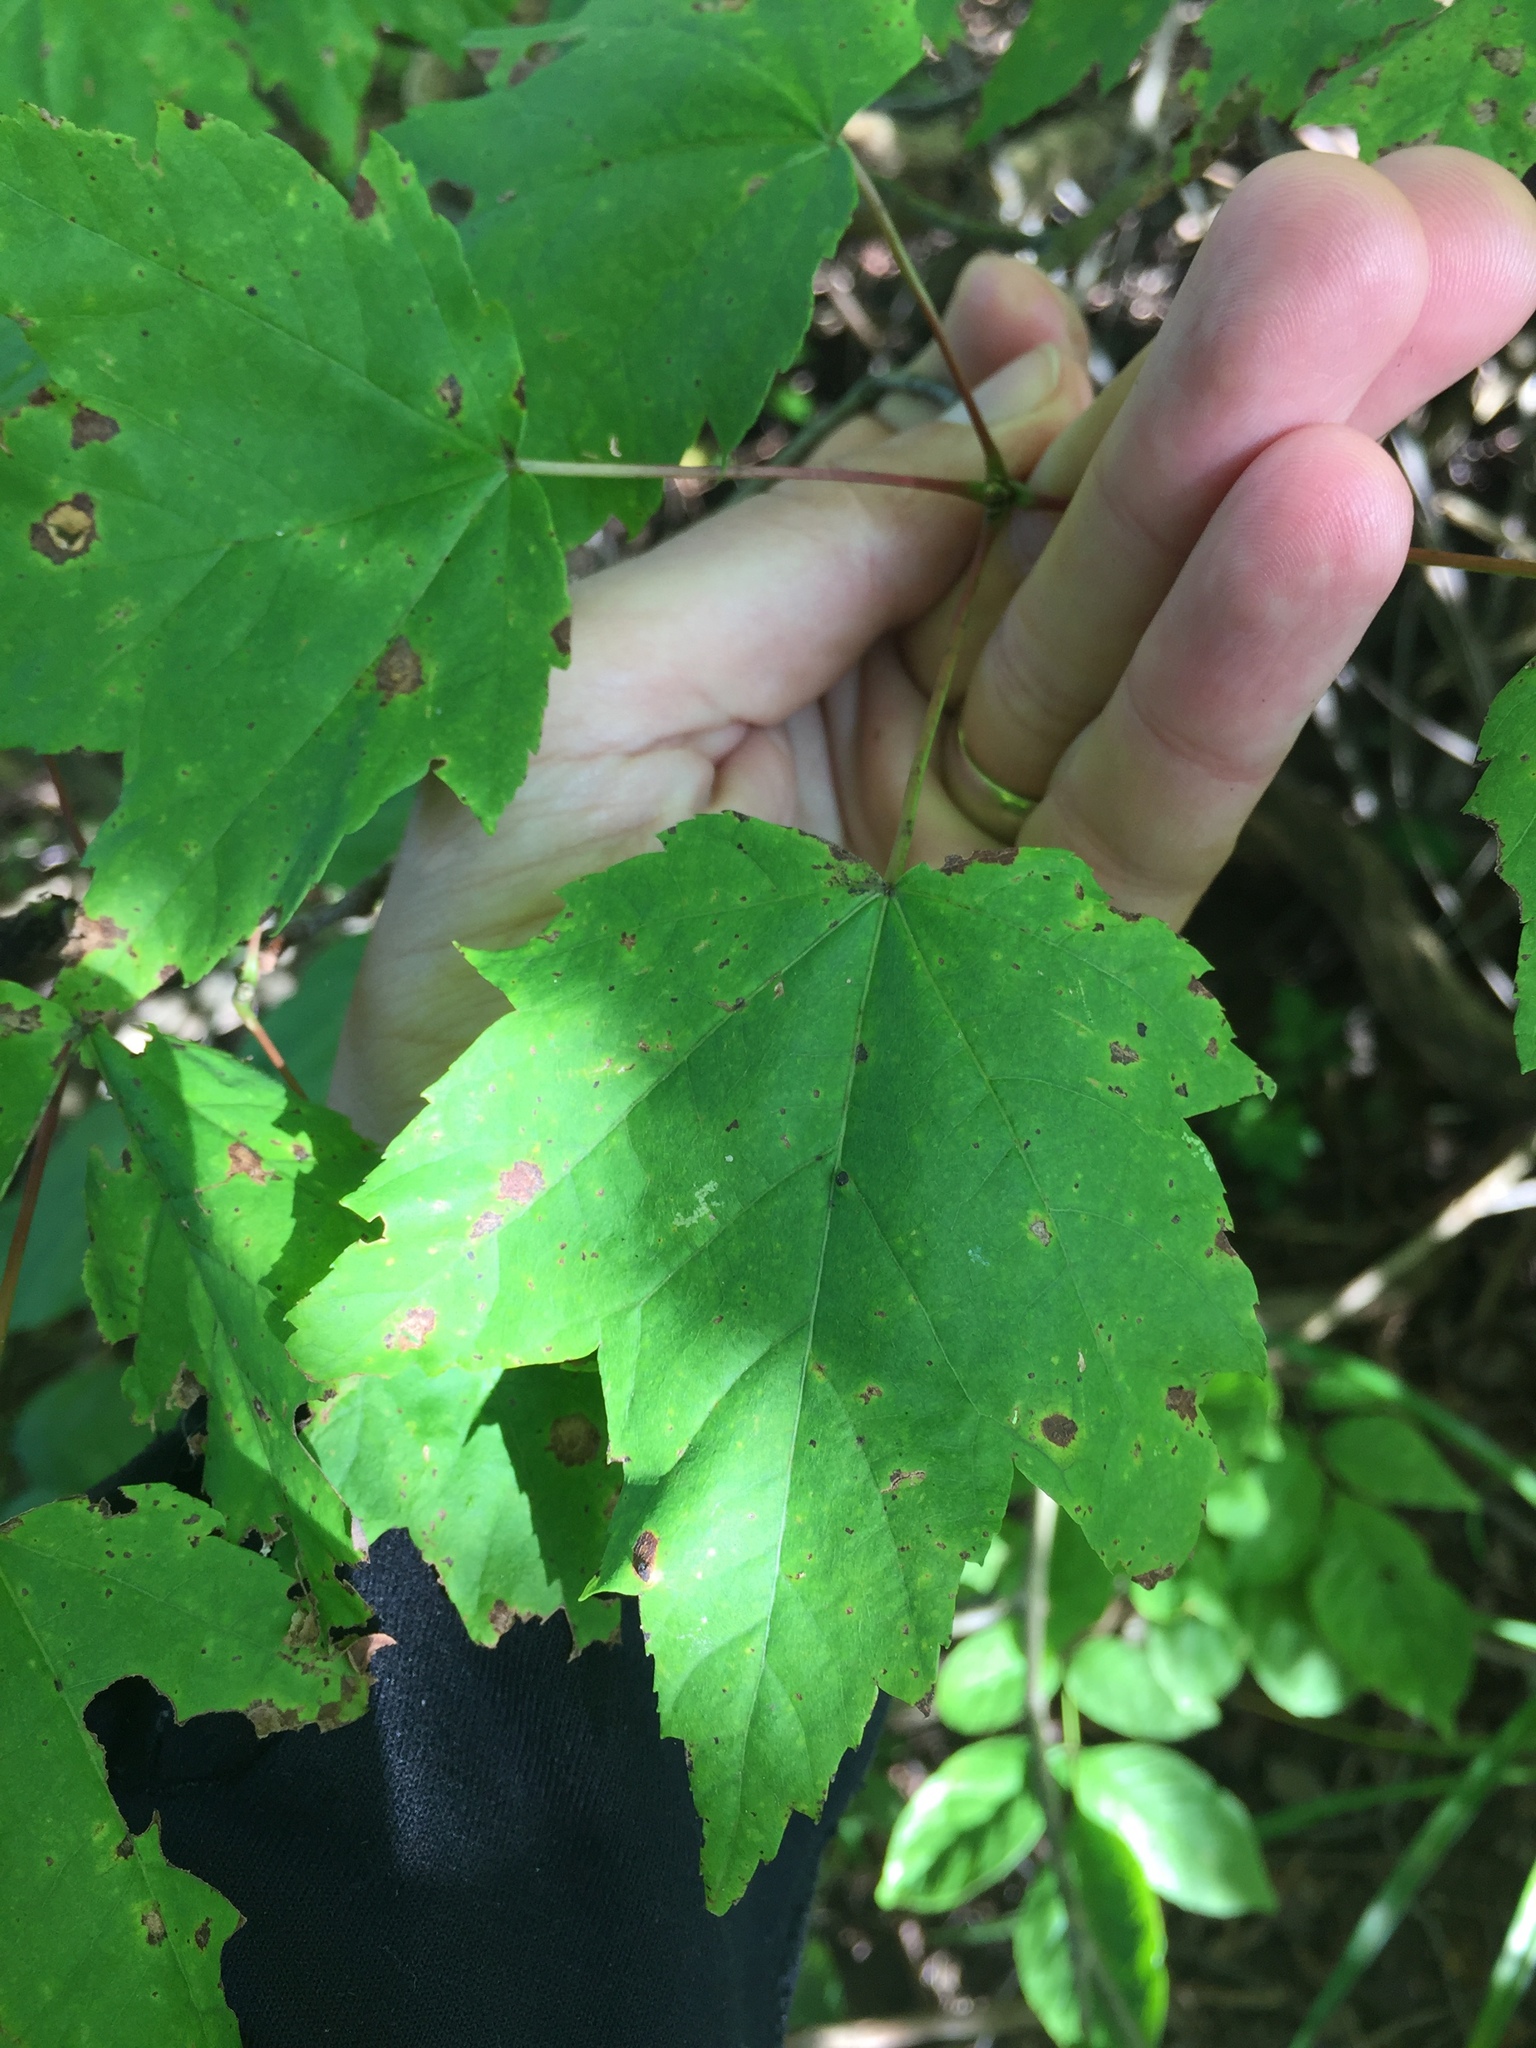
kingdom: Plantae
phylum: Tracheophyta
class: Magnoliopsida
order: Sapindales
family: Sapindaceae
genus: Acer
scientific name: Acer rubrum
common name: Red maple
